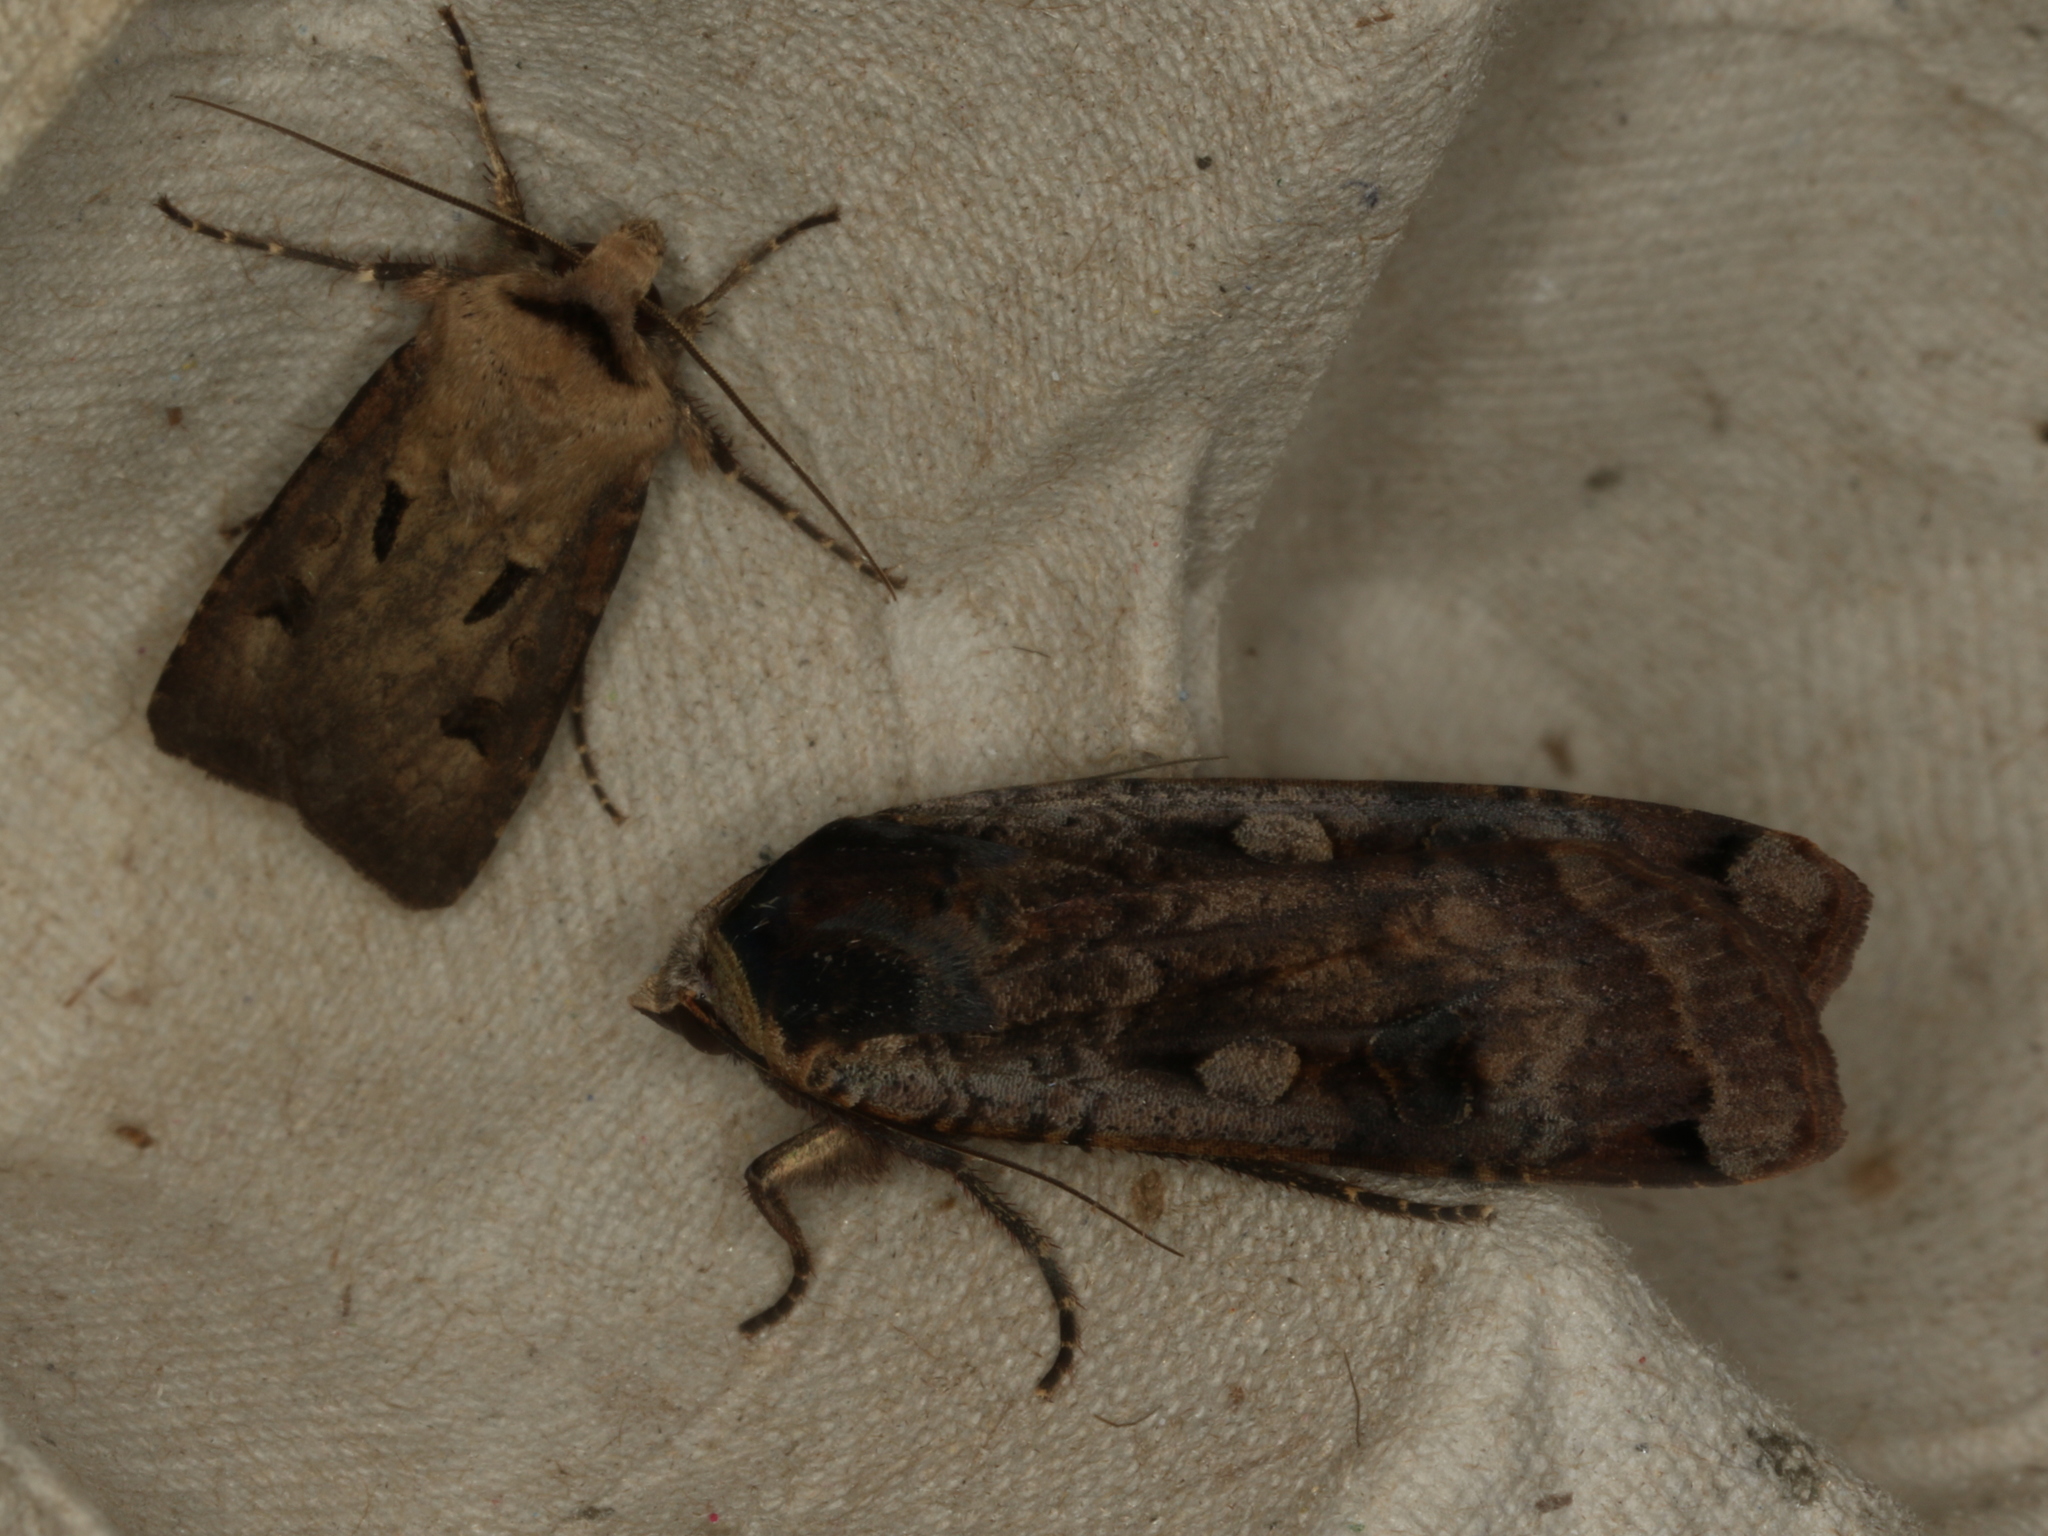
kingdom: Animalia
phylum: Arthropoda
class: Insecta
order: Lepidoptera
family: Noctuidae
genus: Noctua
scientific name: Noctua pronuba
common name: Large yellow underwing
